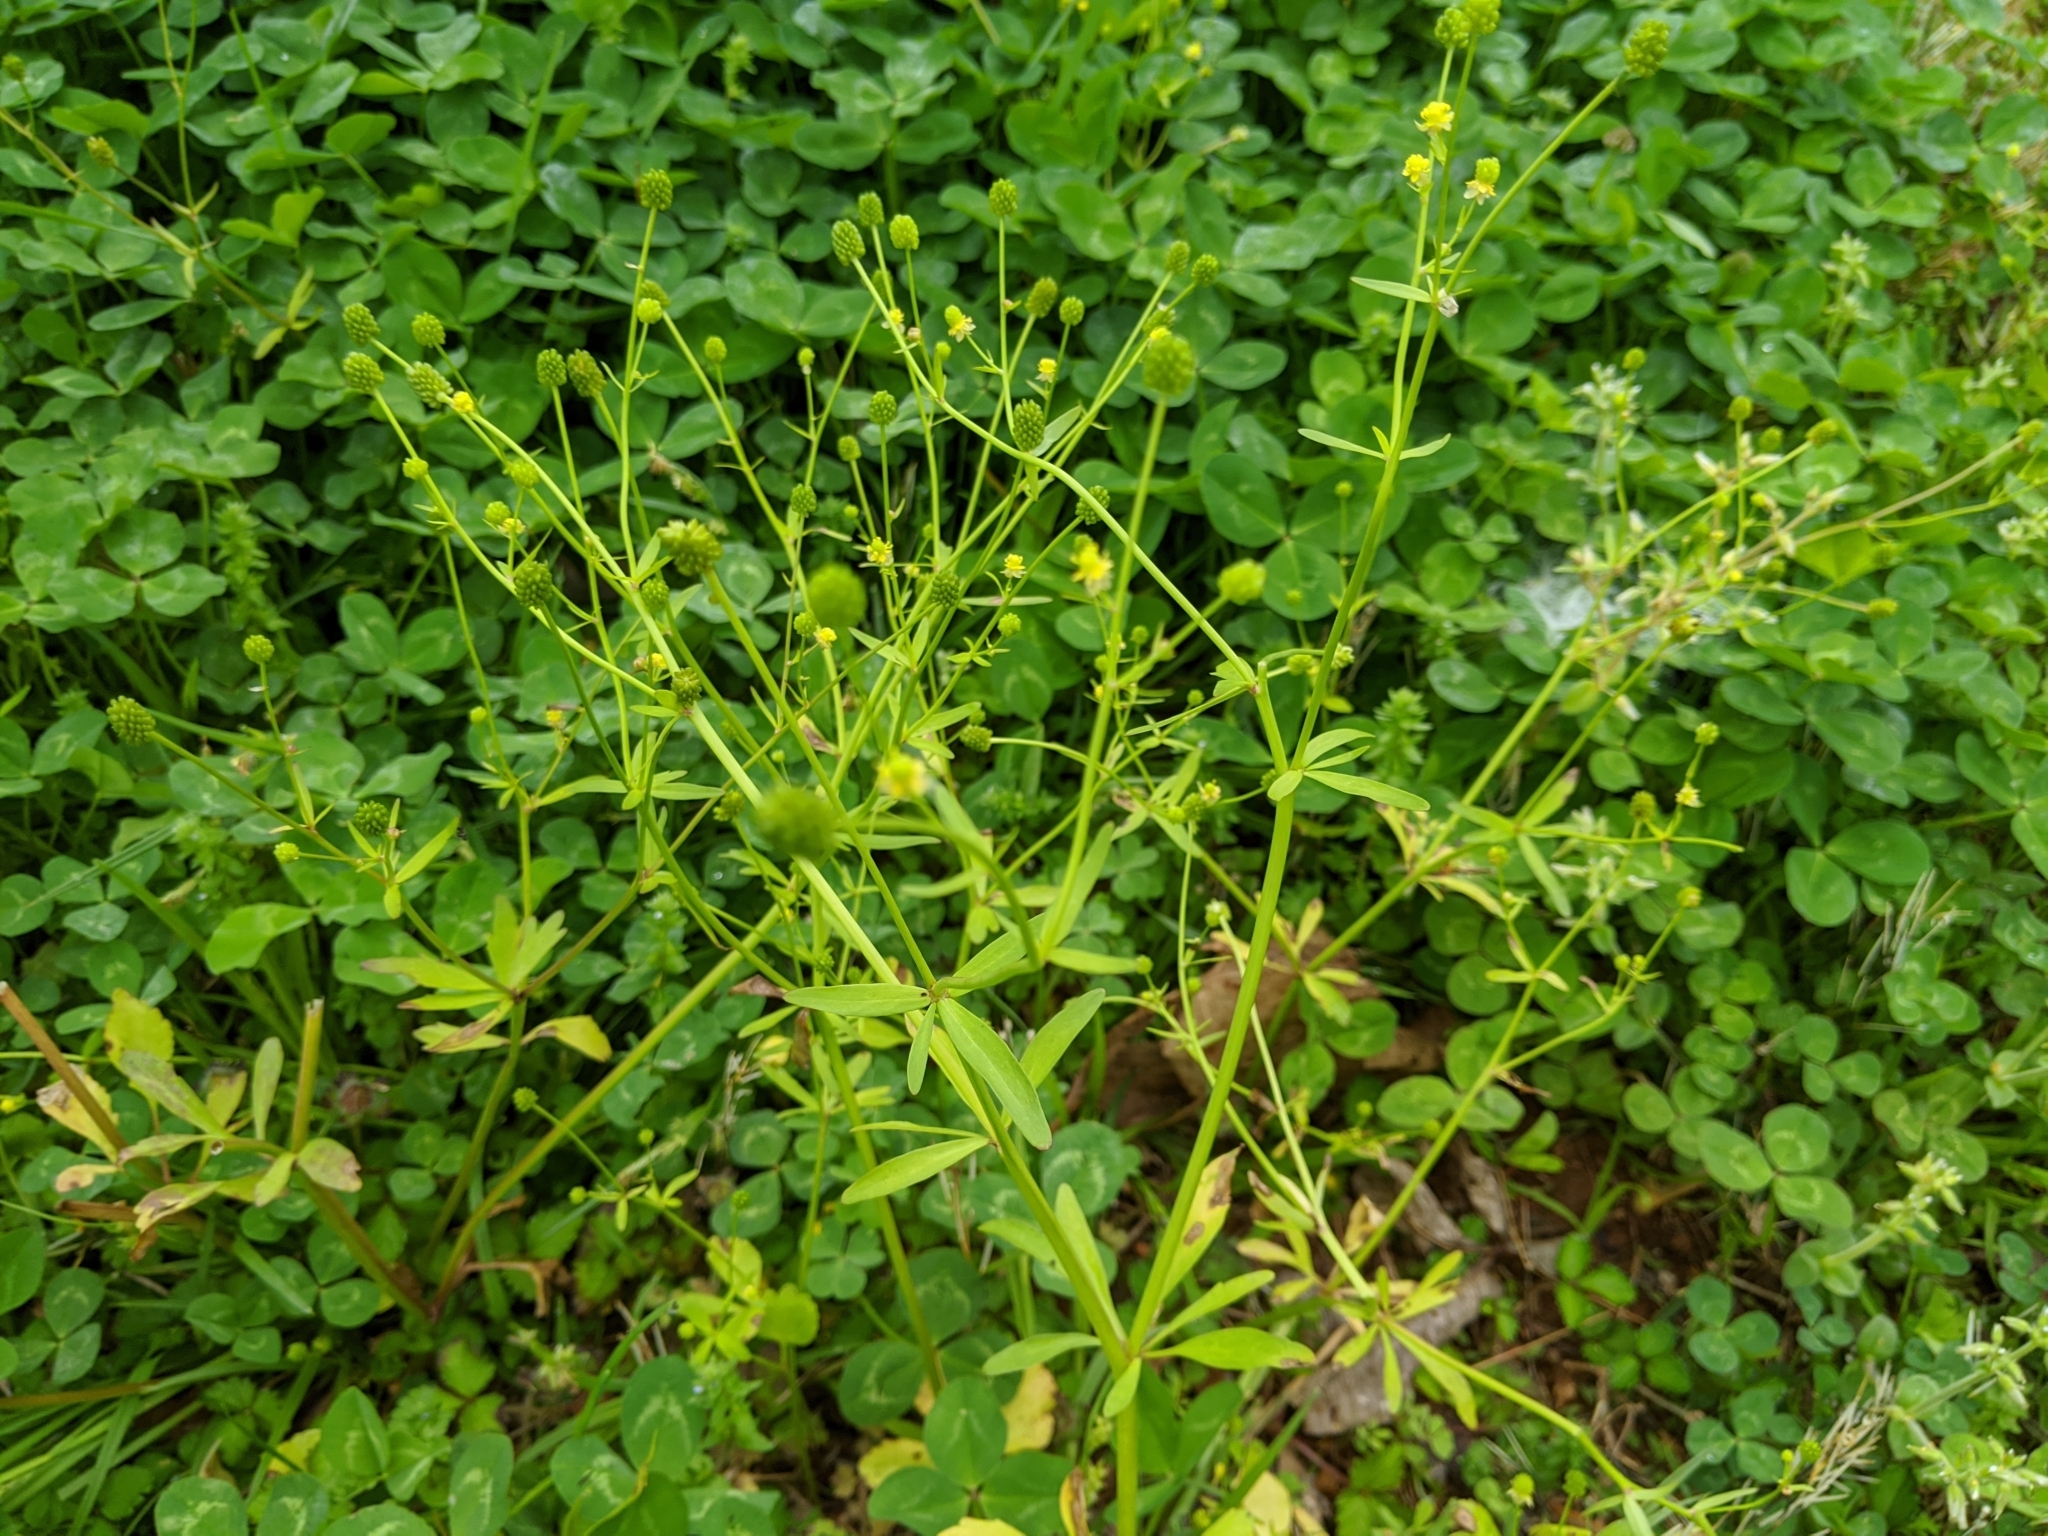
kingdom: Plantae
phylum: Tracheophyta
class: Magnoliopsida
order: Ranunculales
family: Ranunculaceae
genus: Ranunculus
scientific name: Ranunculus abortivus
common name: Early wood buttercup
